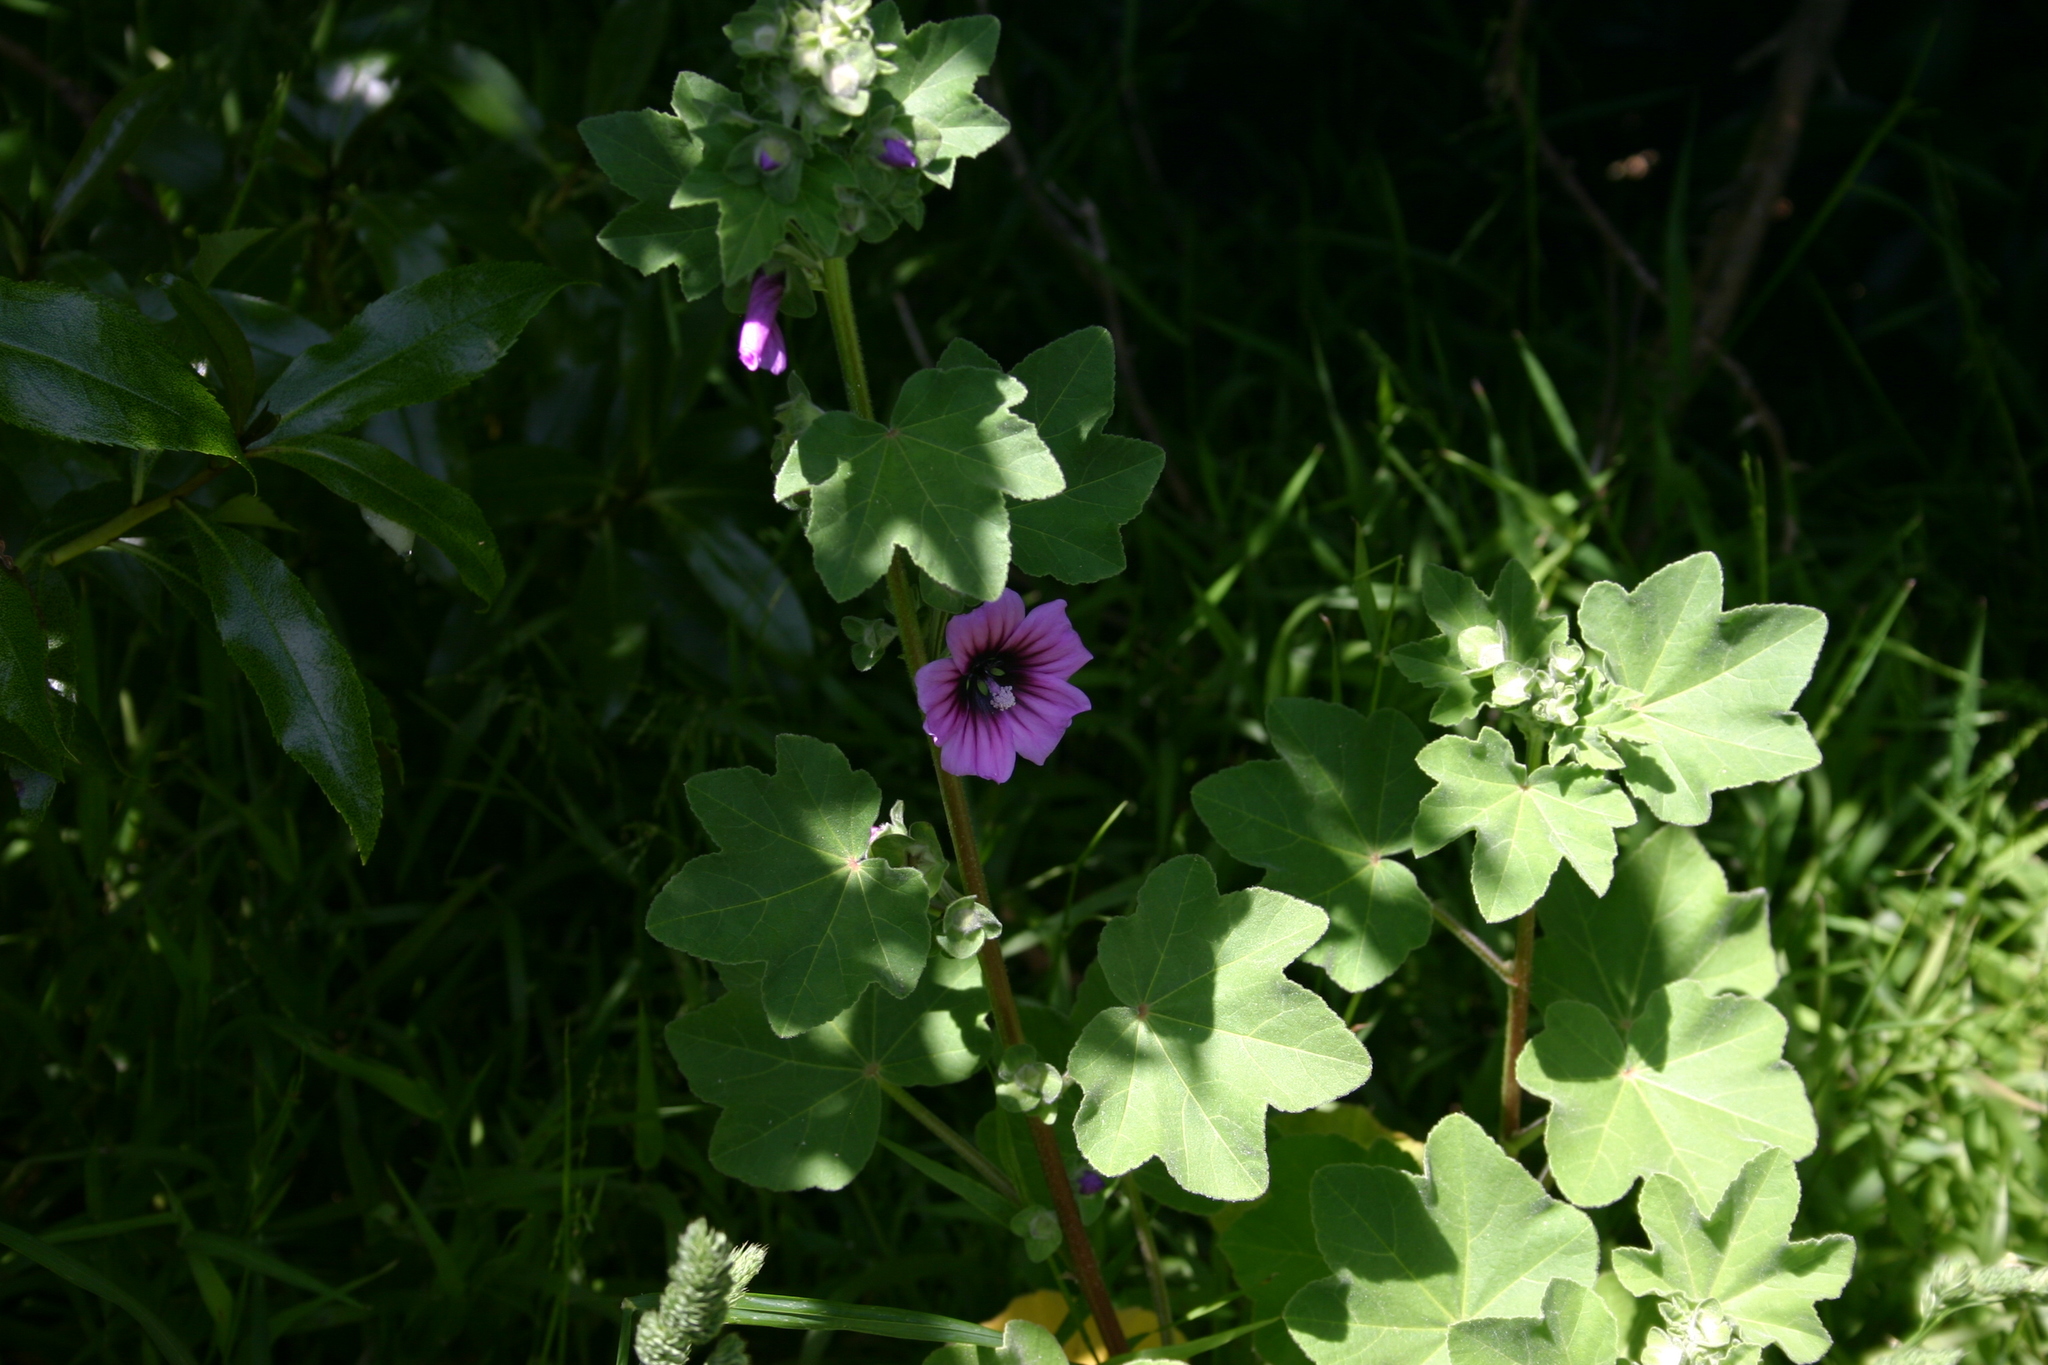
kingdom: Plantae
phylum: Tracheophyta
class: Magnoliopsida
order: Malvales
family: Malvaceae
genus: Malva
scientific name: Malva arborea
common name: Tree mallow
